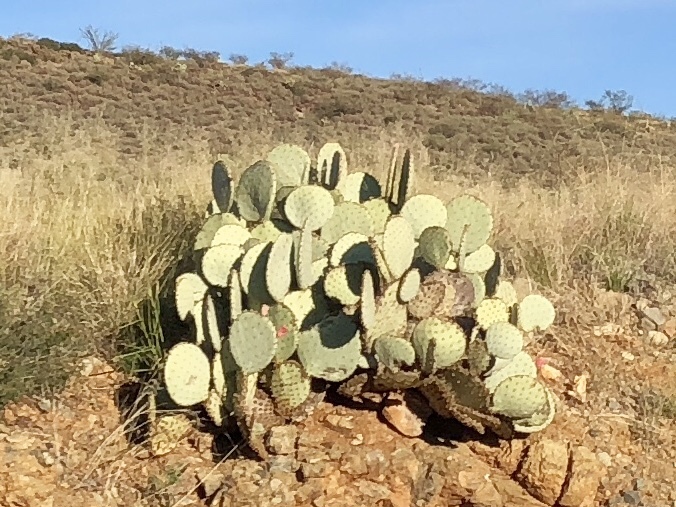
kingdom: Plantae
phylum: Tracheophyta
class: Magnoliopsida
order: Caryophyllales
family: Cactaceae
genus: Opuntia
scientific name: Opuntia chlorotica
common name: Dollar-joint prickly-pear
